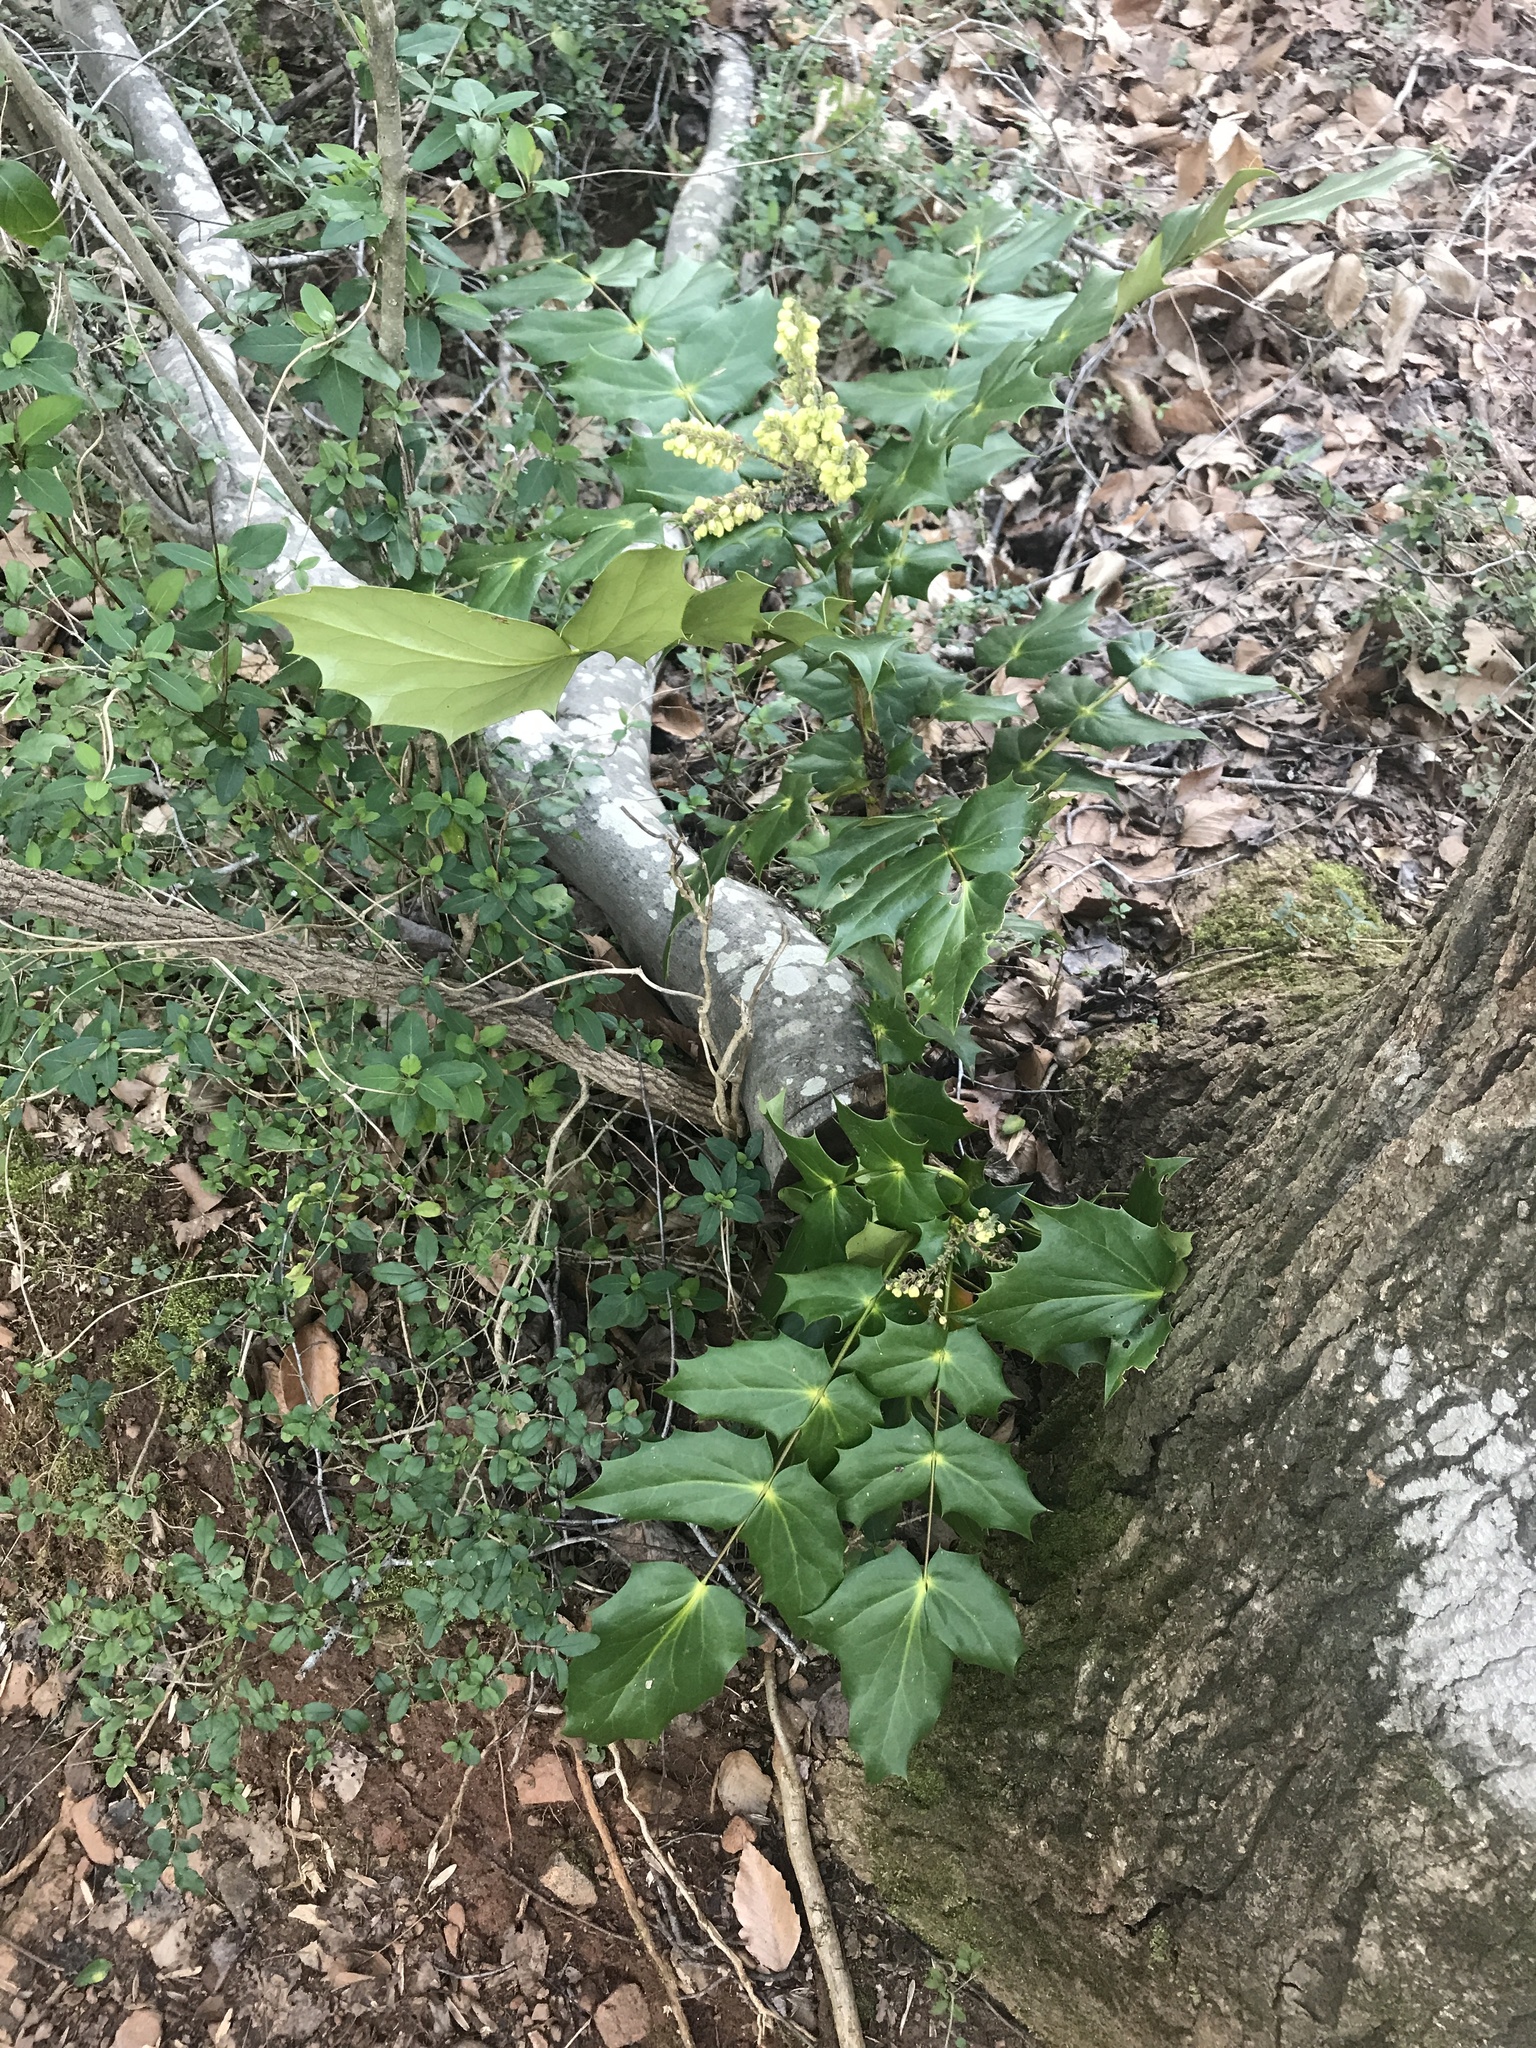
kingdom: Plantae
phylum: Tracheophyta
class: Magnoliopsida
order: Ranunculales
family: Berberidaceae
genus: Mahonia
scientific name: Mahonia bealei
